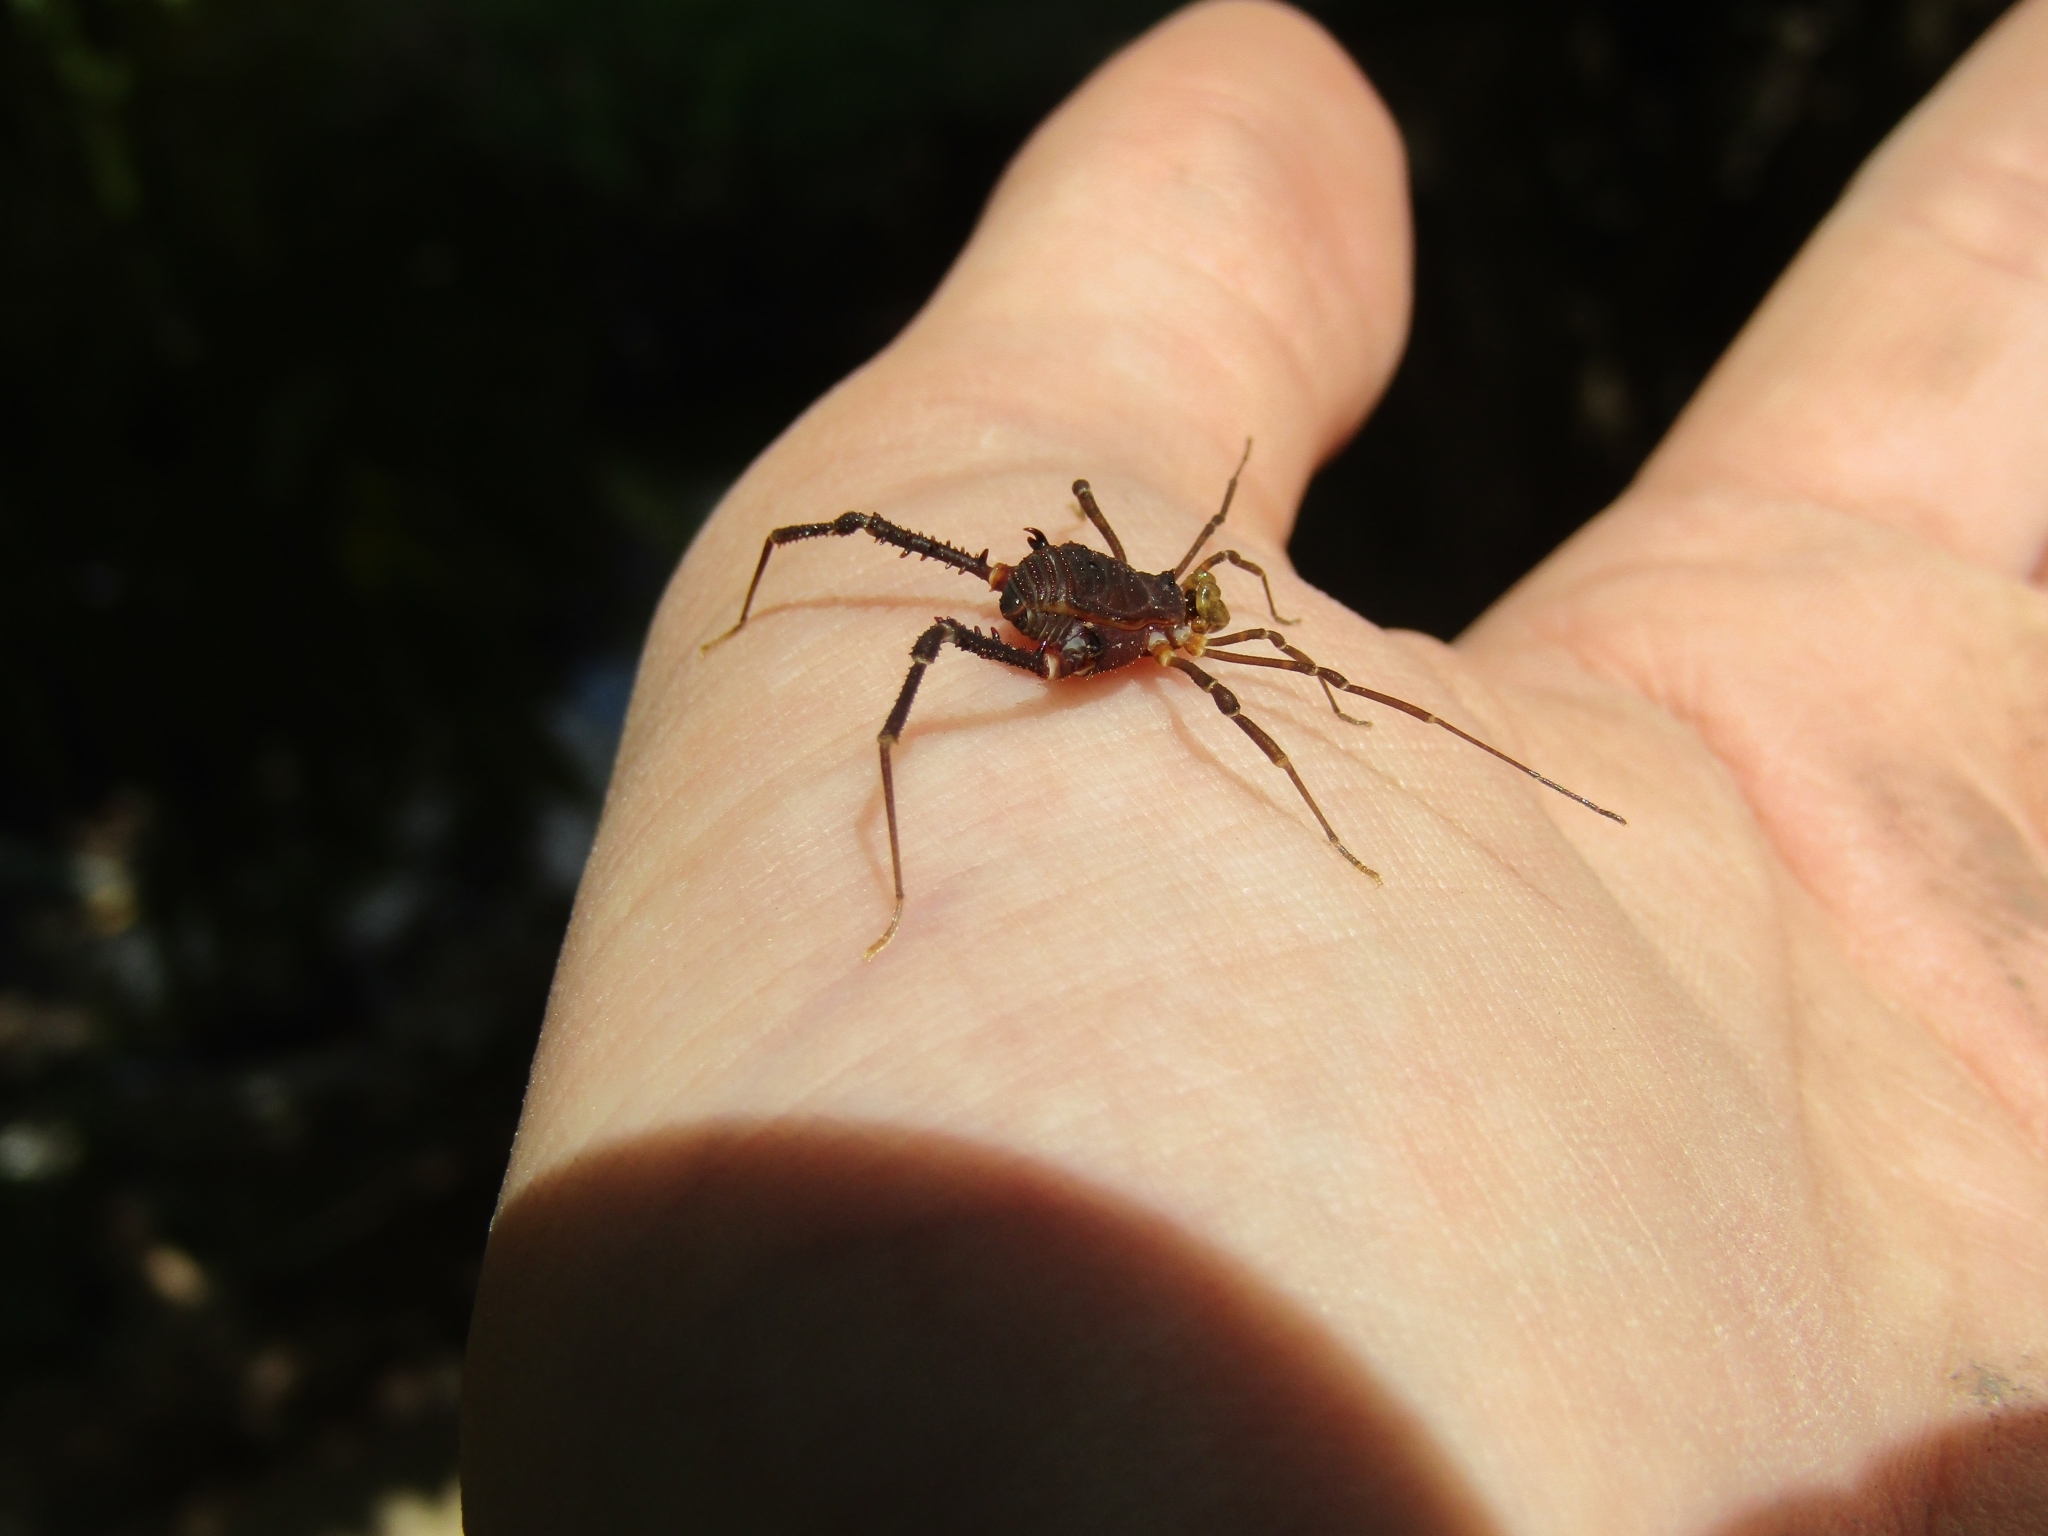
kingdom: Animalia
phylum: Arthropoda
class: Arachnida
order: Opiliones
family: Gonyleptidae
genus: Opisthoplatus
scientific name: Opisthoplatus prospicuus
